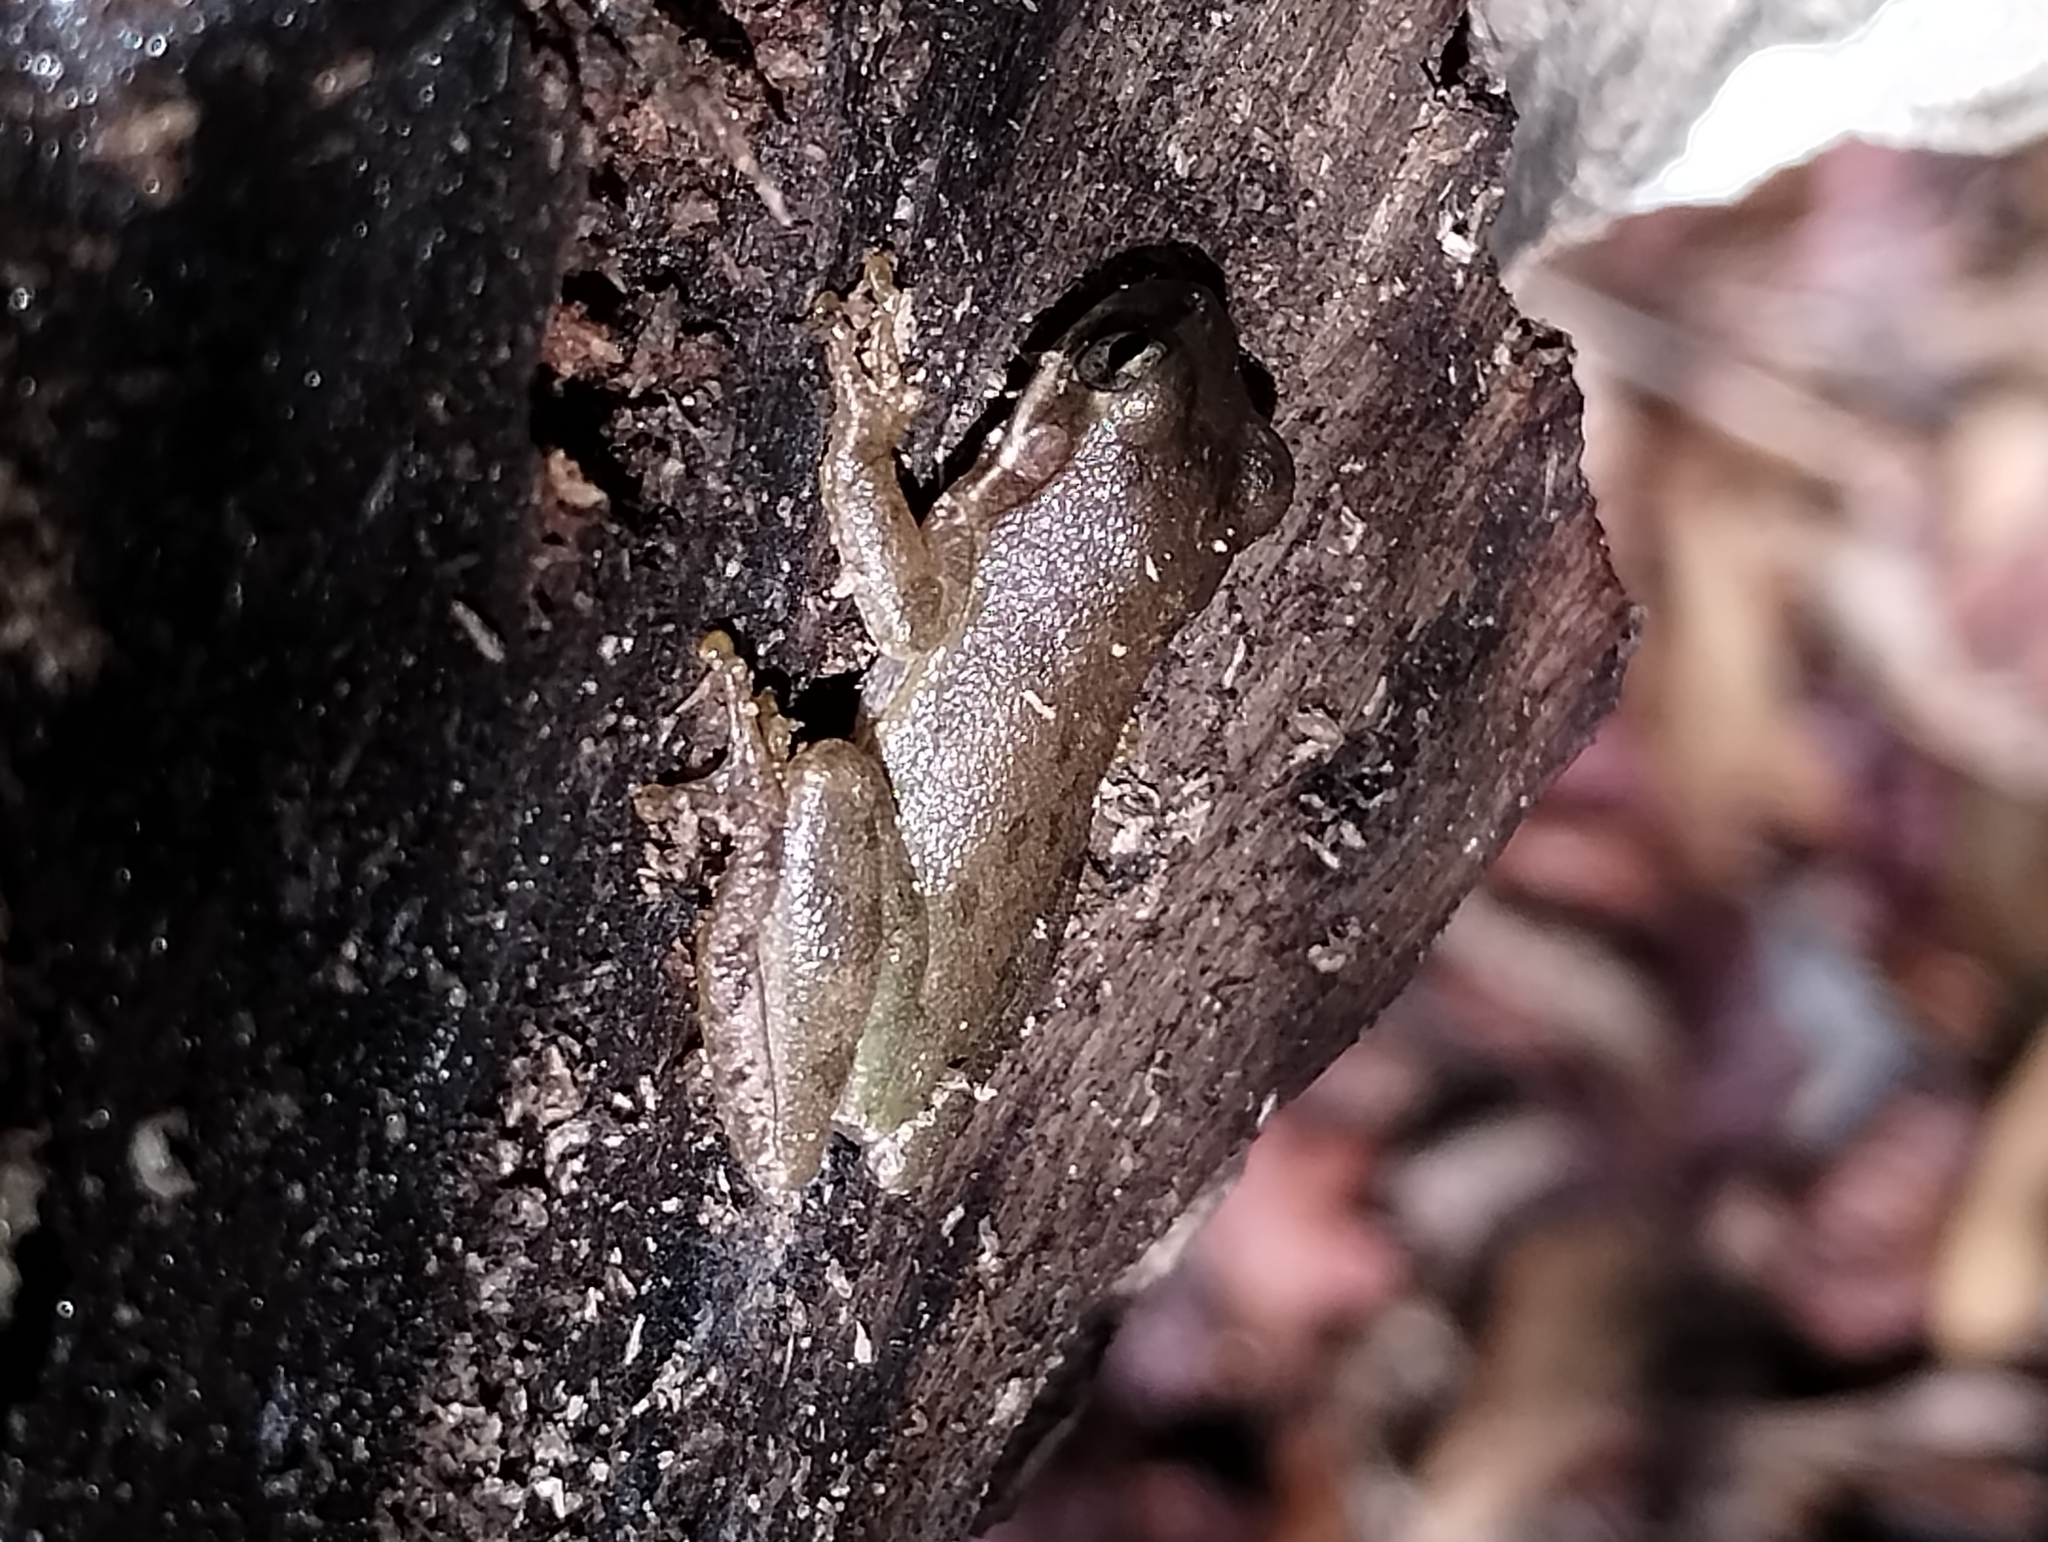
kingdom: Animalia
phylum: Chordata
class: Amphibia
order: Anura
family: Hylidae
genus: Dryophytes
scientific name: Dryophytes squirellus
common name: Squirrel treefrog
